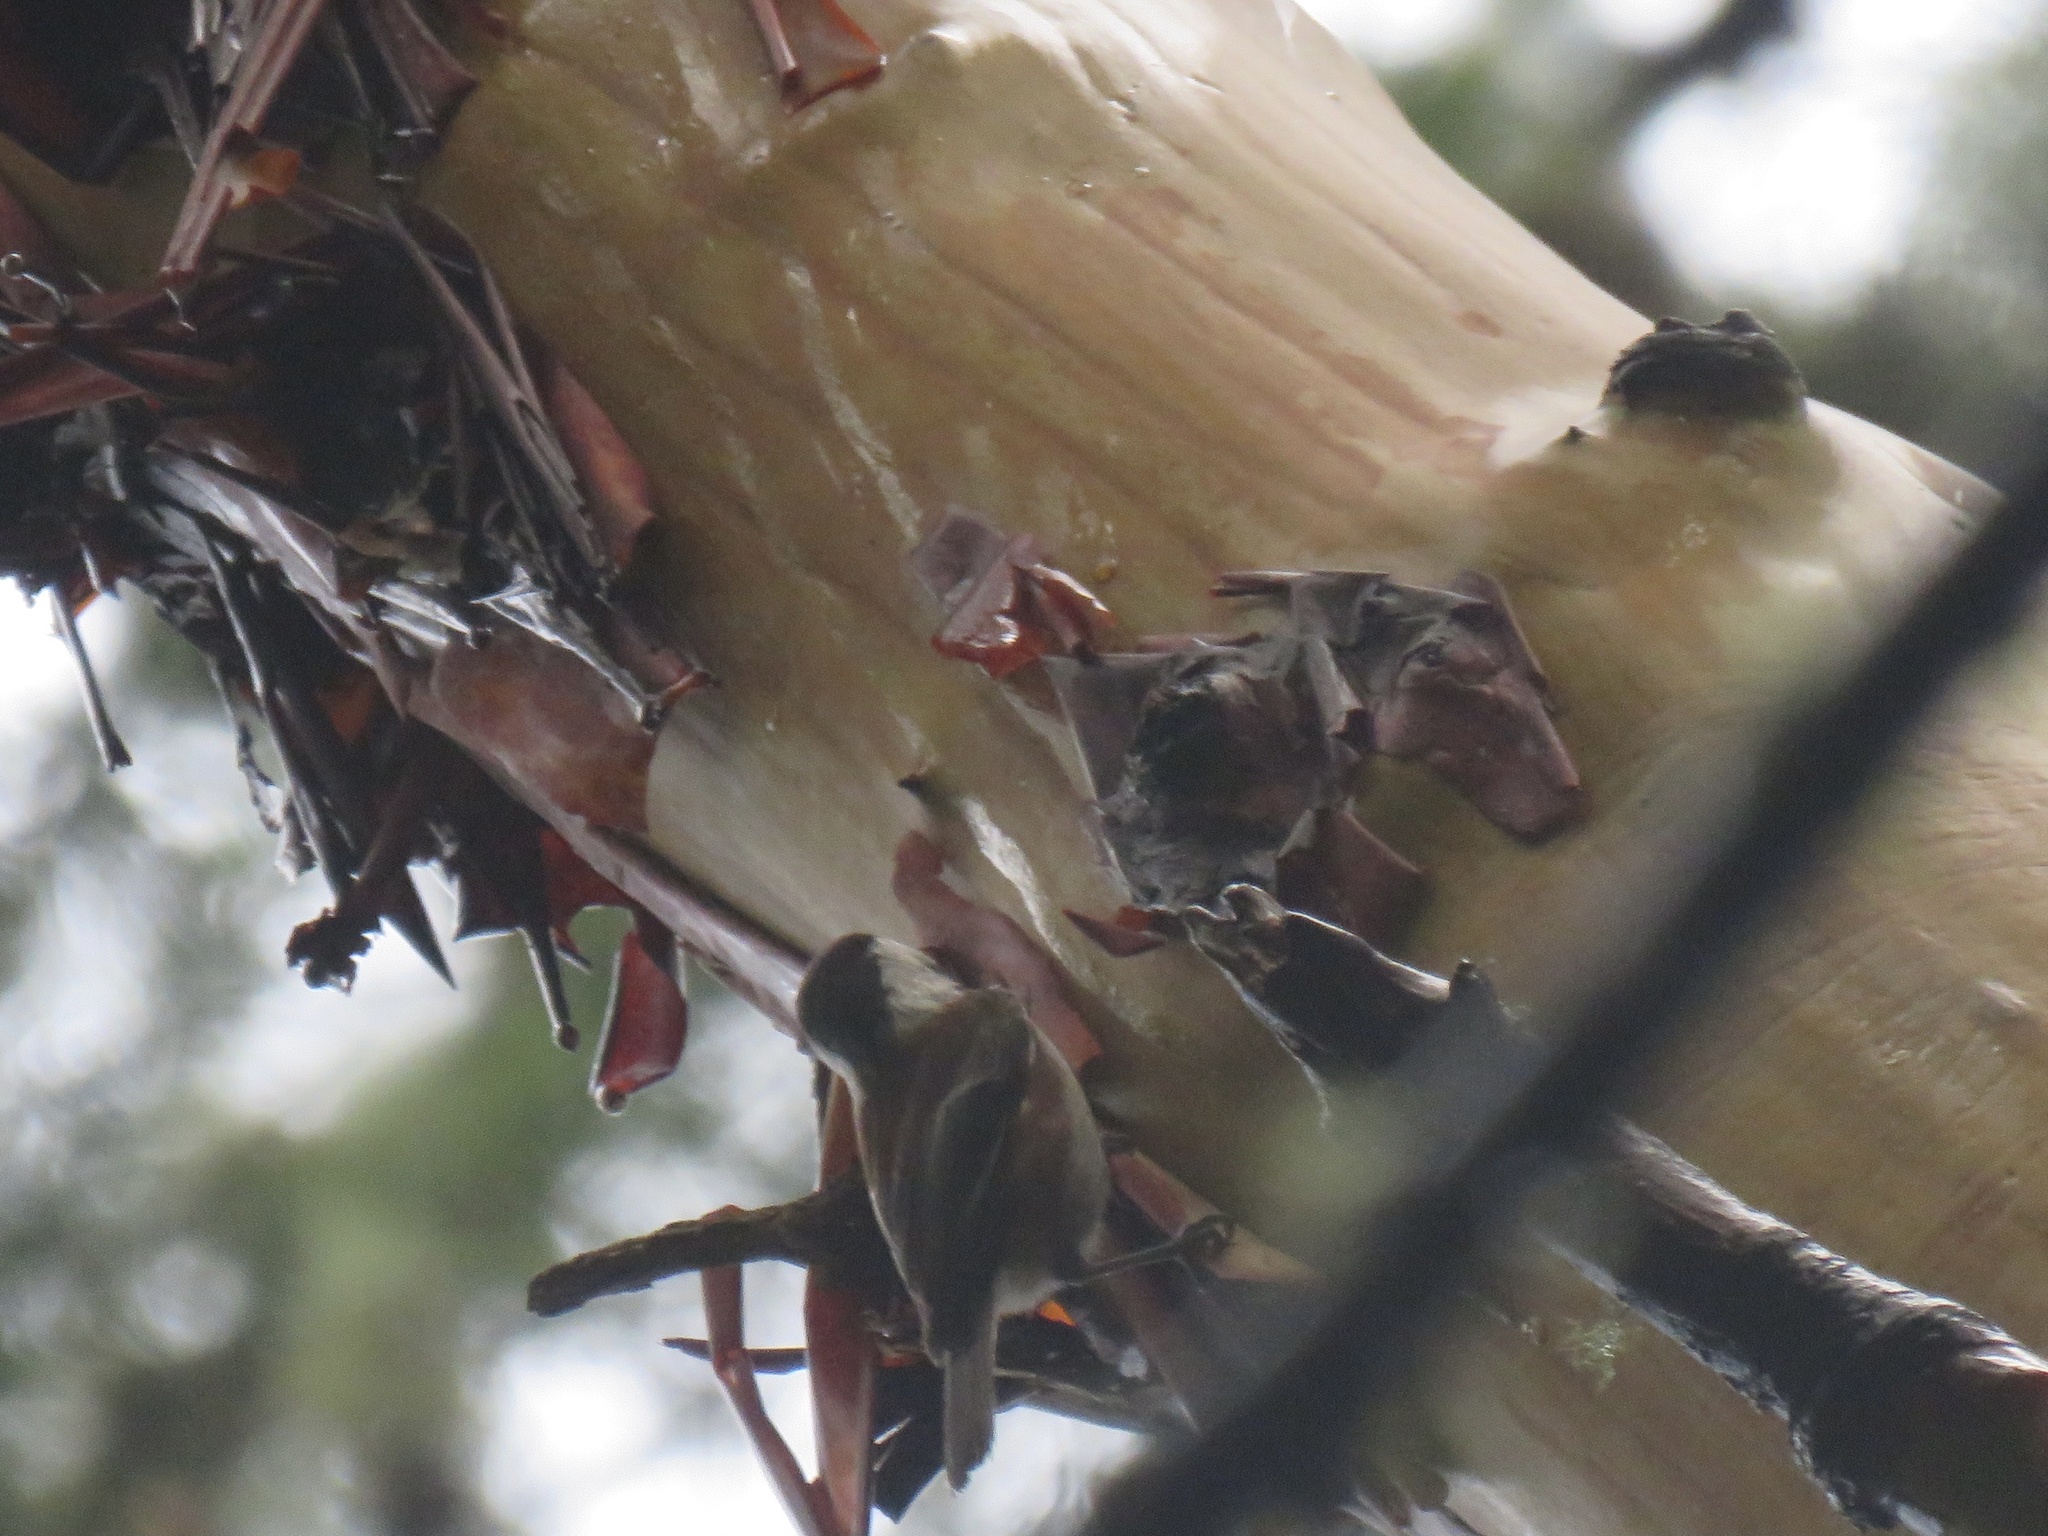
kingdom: Animalia
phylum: Chordata
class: Aves
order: Passeriformes
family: Paridae
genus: Poecile
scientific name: Poecile rufescens
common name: Chestnut-backed chickadee
